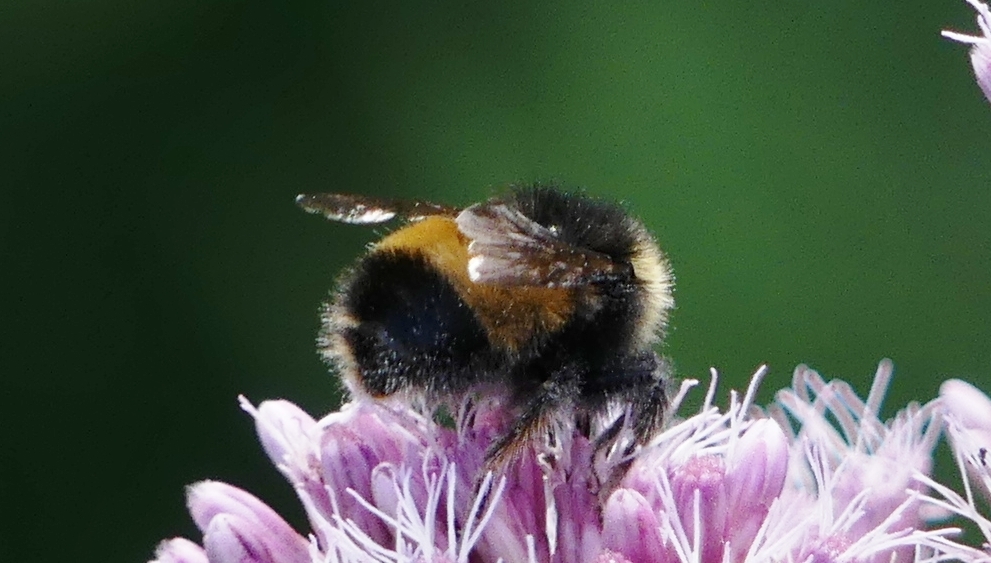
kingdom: Animalia
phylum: Arthropoda
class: Insecta
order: Hymenoptera
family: Apidae
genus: Bombus
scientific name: Bombus terricola
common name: Yellow-banded bumble bee
